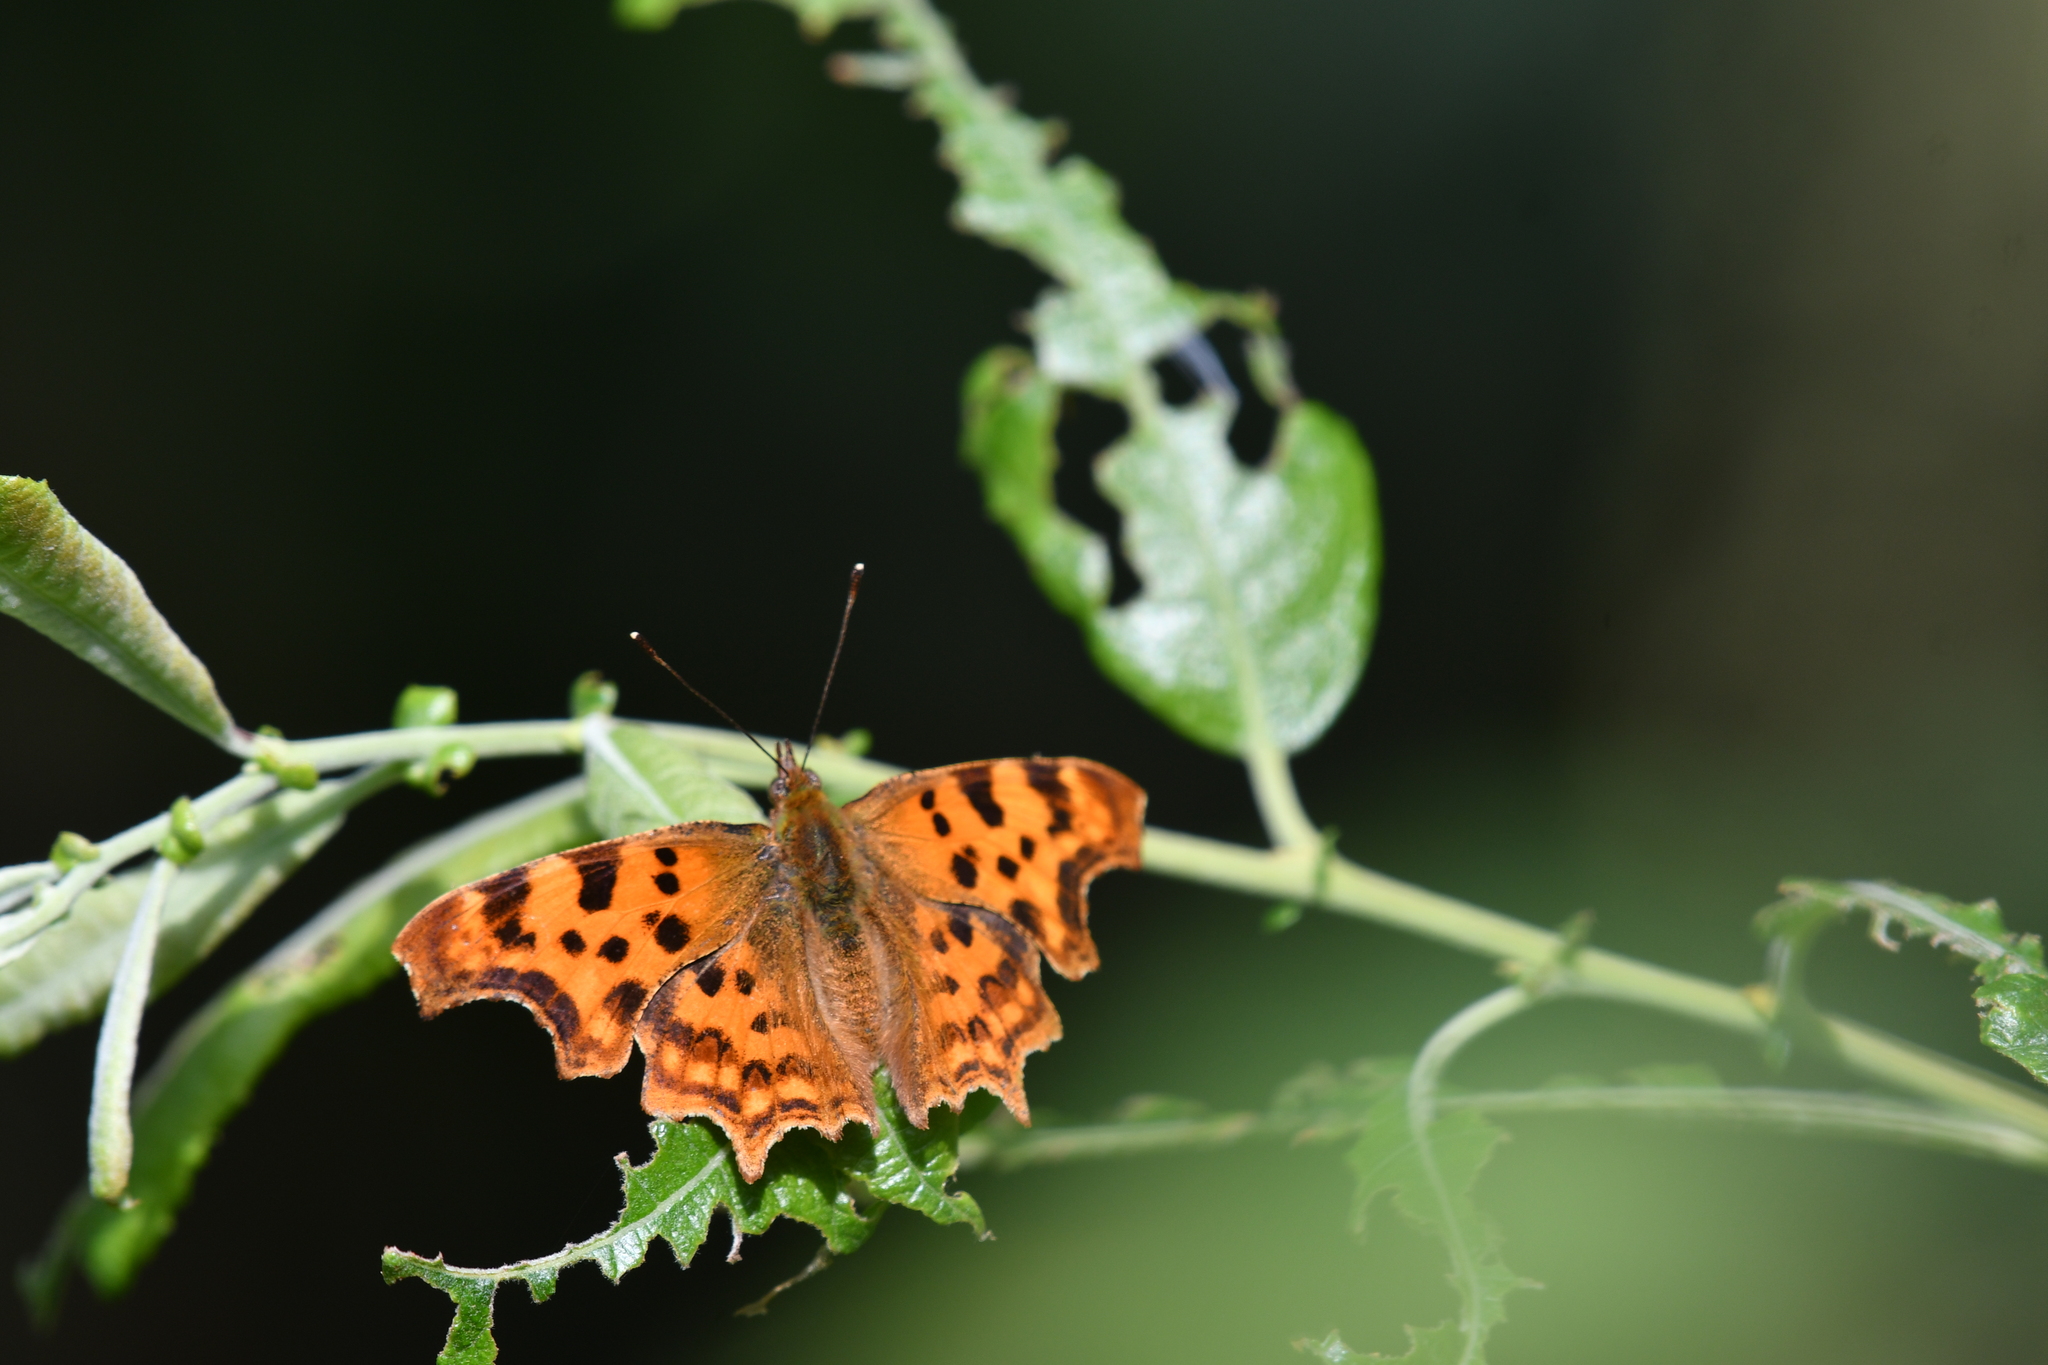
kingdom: Animalia
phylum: Arthropoda
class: Insecta
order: Lepidoptera
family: Nymphalidae
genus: Polygonia
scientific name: Polygonia c-album
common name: Comma
